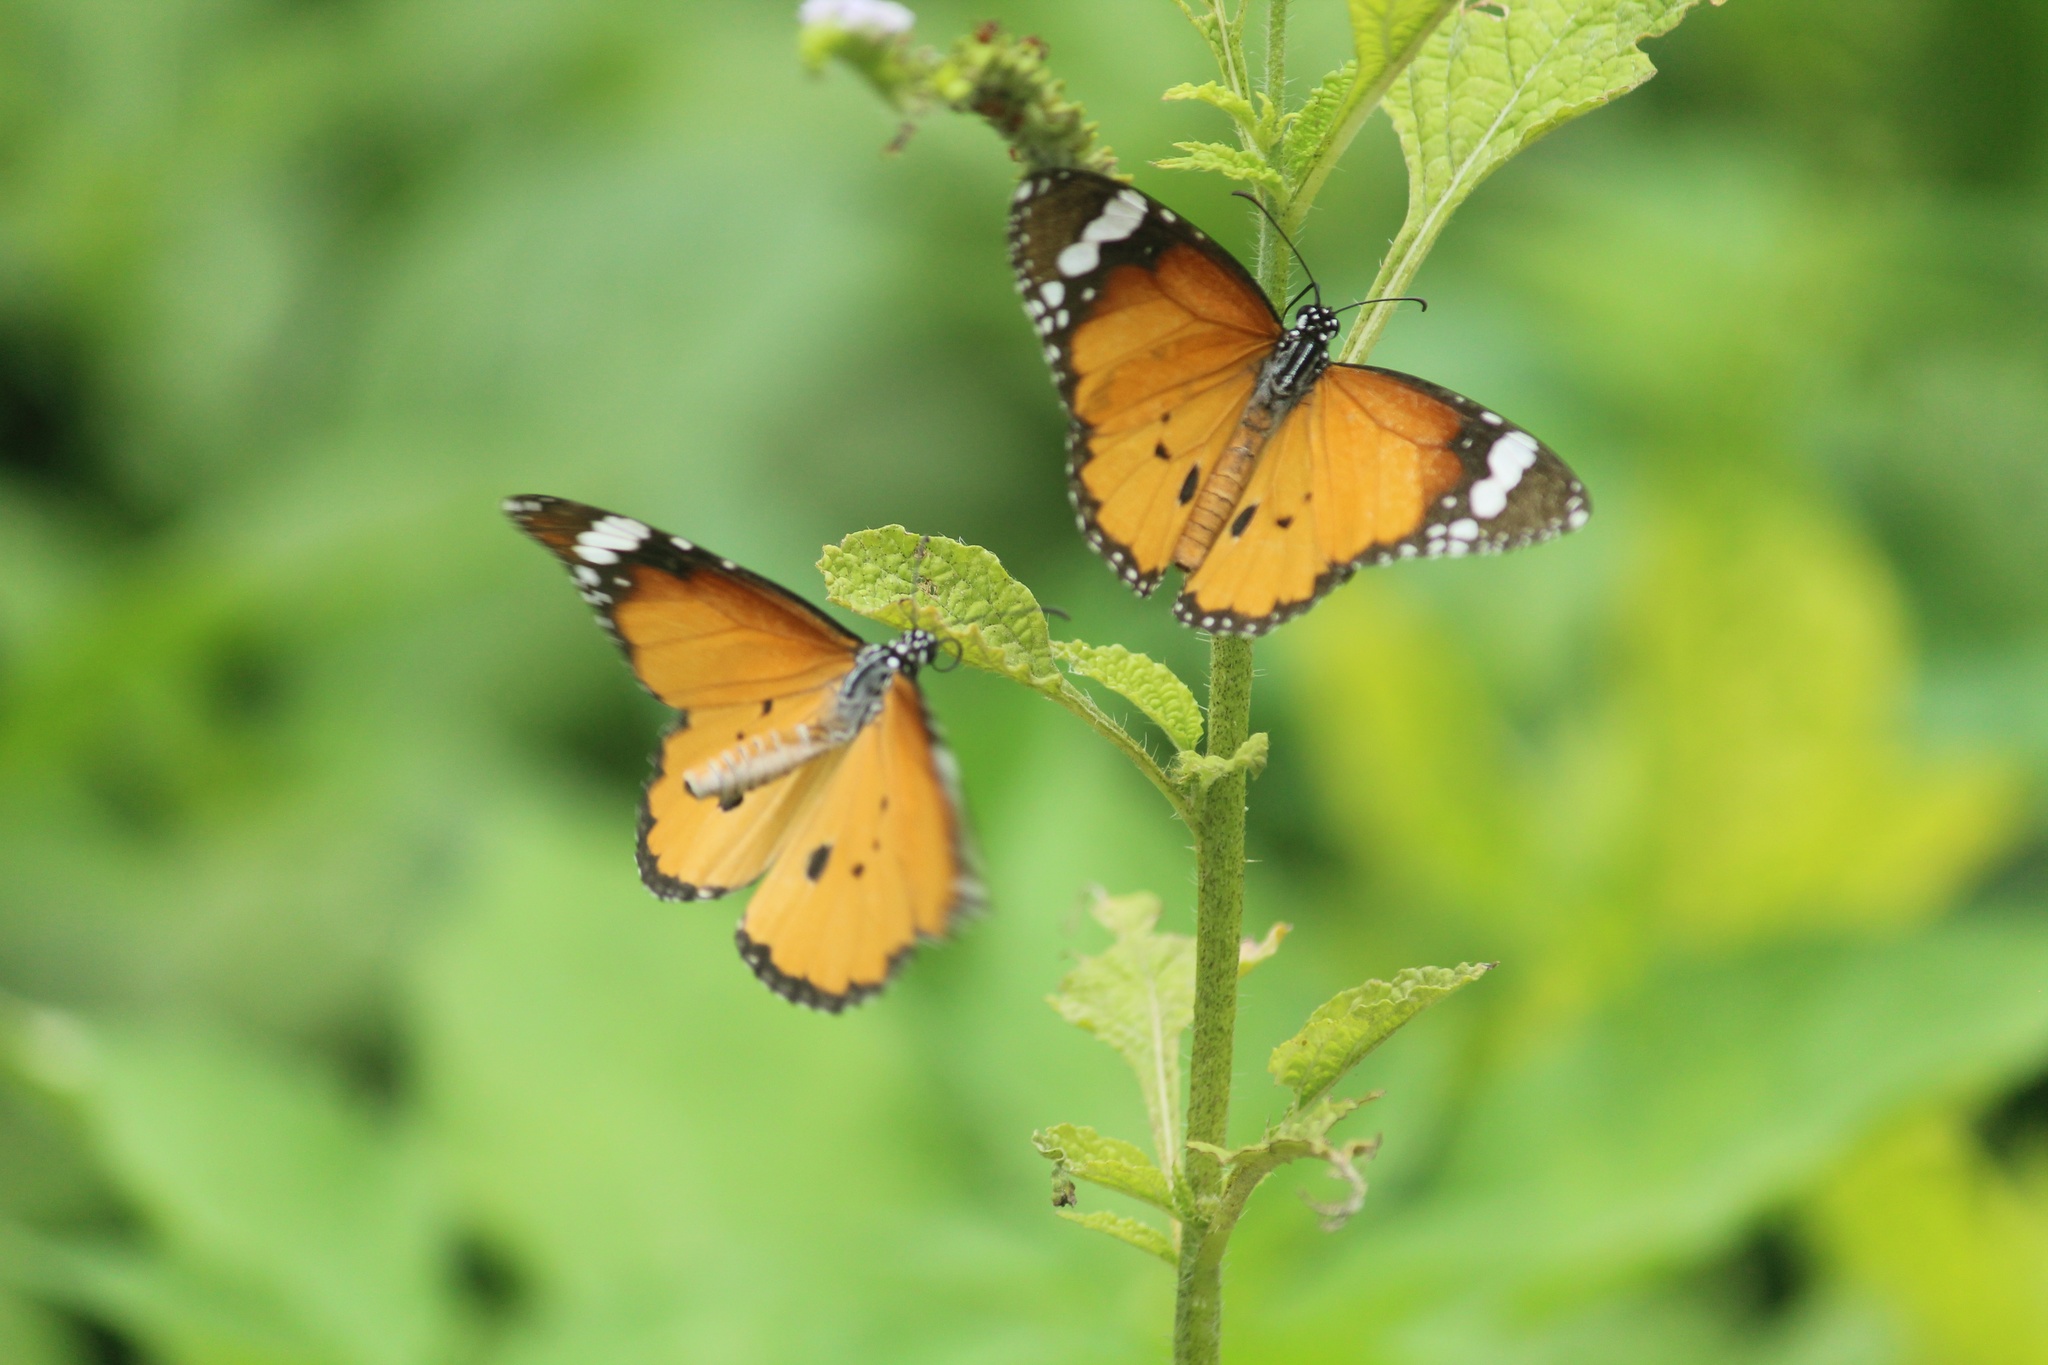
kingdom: Animalia
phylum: Arthropoda
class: Insecta
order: Lepidoptera
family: Nymphalidae
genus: Danaus
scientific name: Danaus chrysippus
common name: Plain tiger
